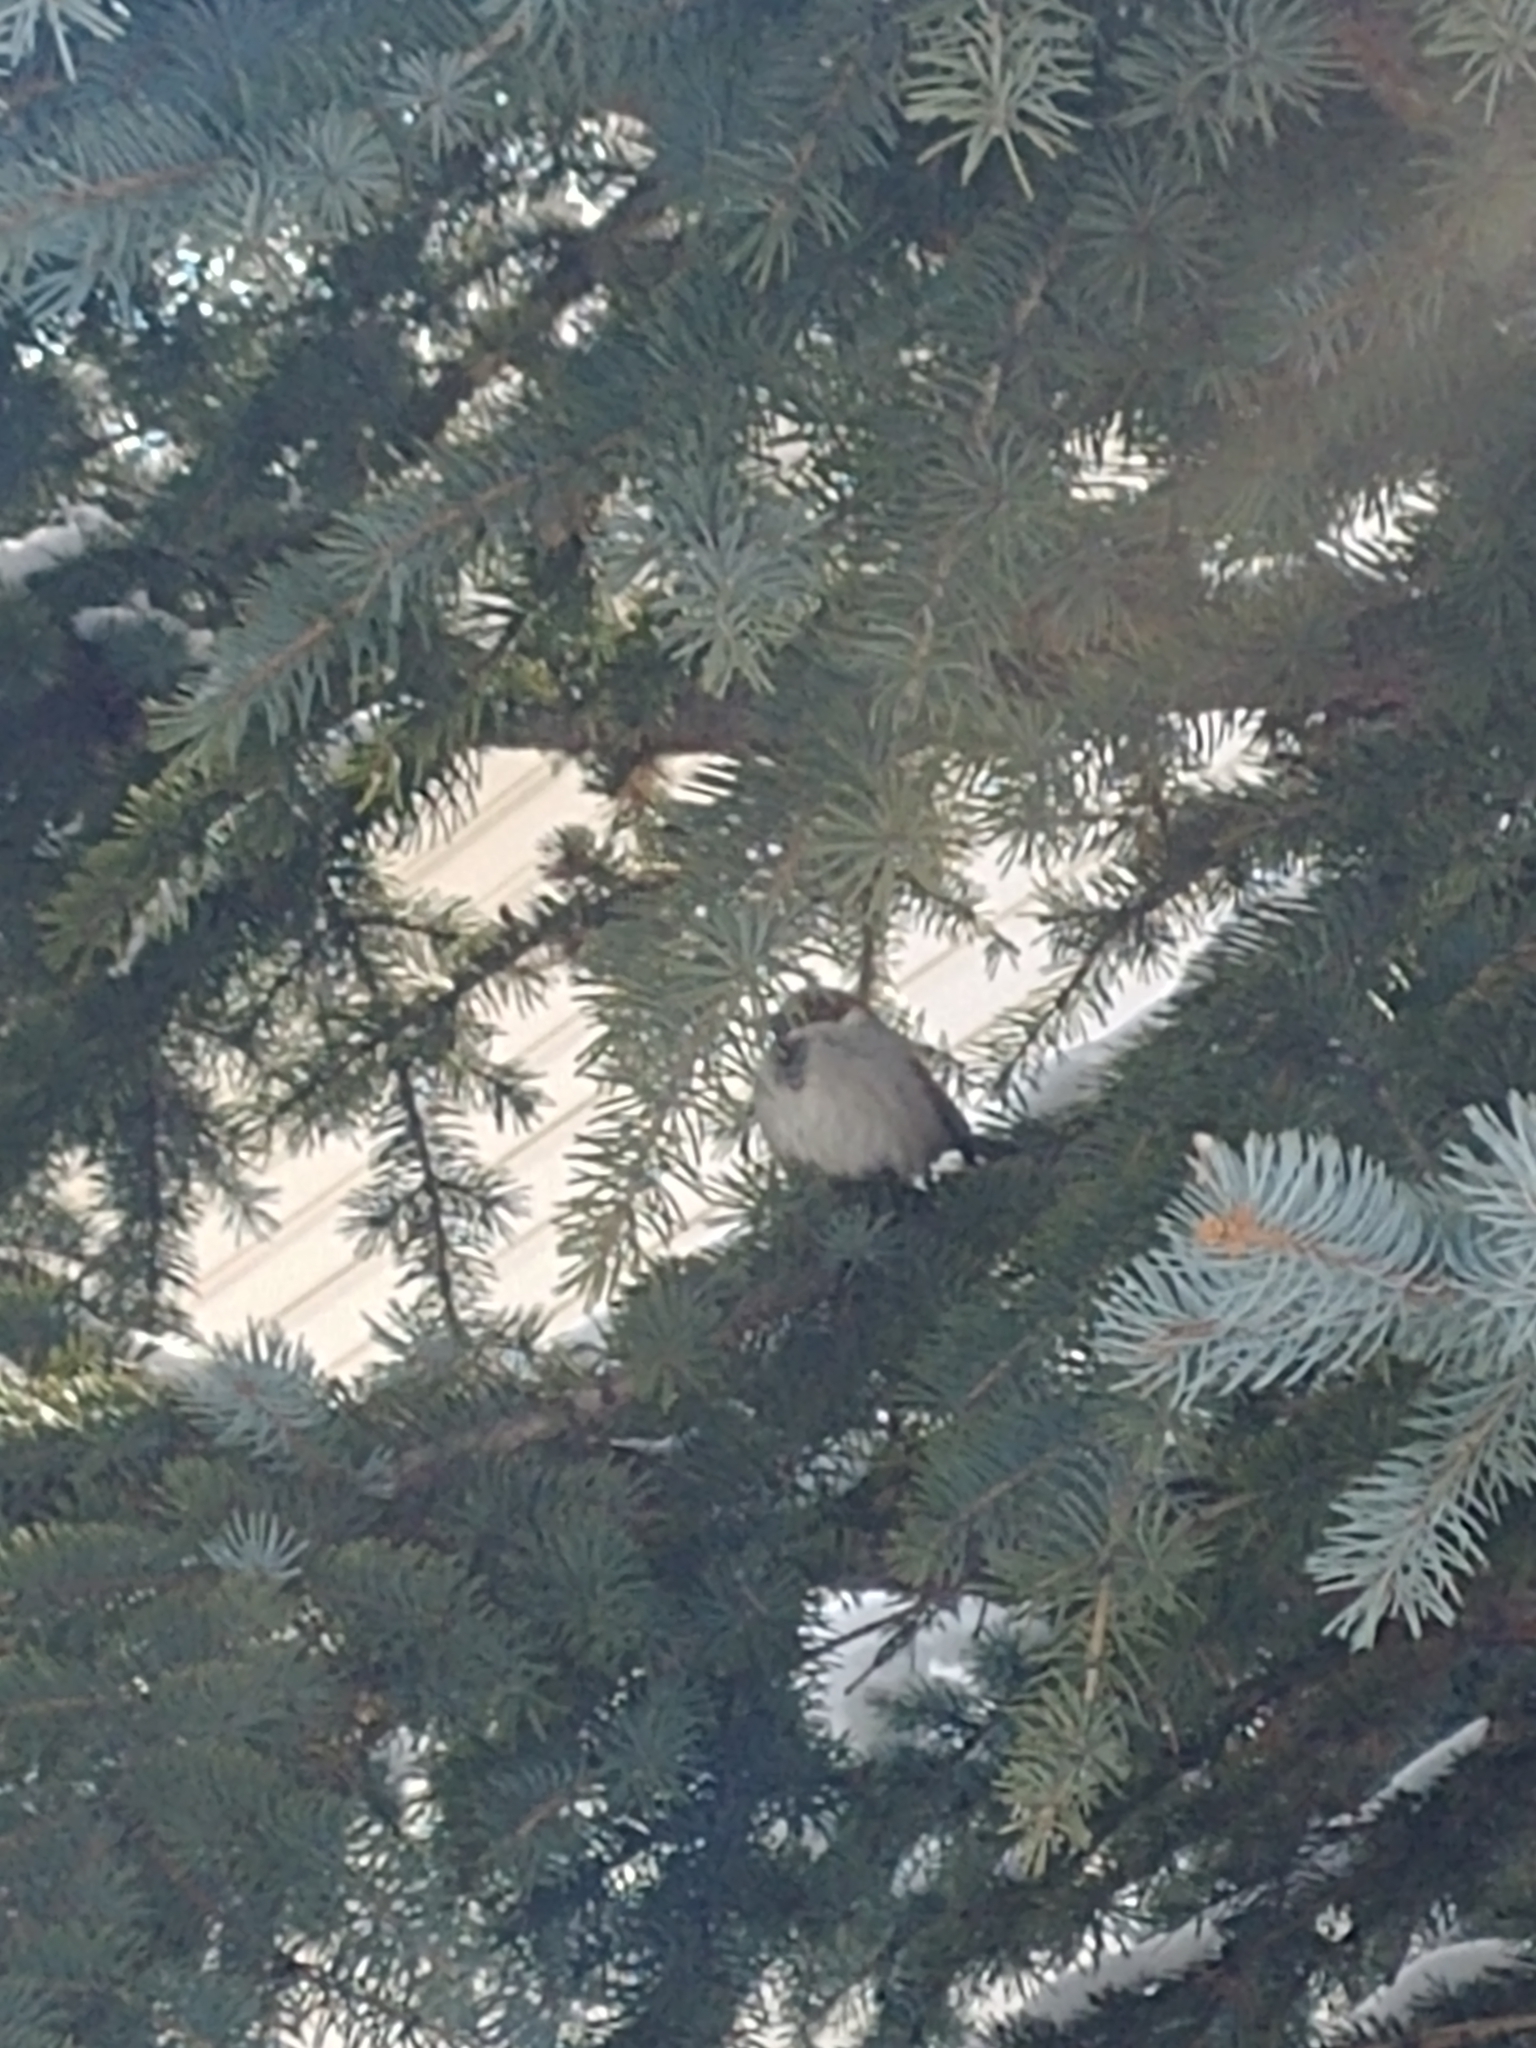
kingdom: Animalia
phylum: Chordata
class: Aves
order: Passeriformes
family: Passeridae
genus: Passer
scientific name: Passer domesticus
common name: House sparrow
